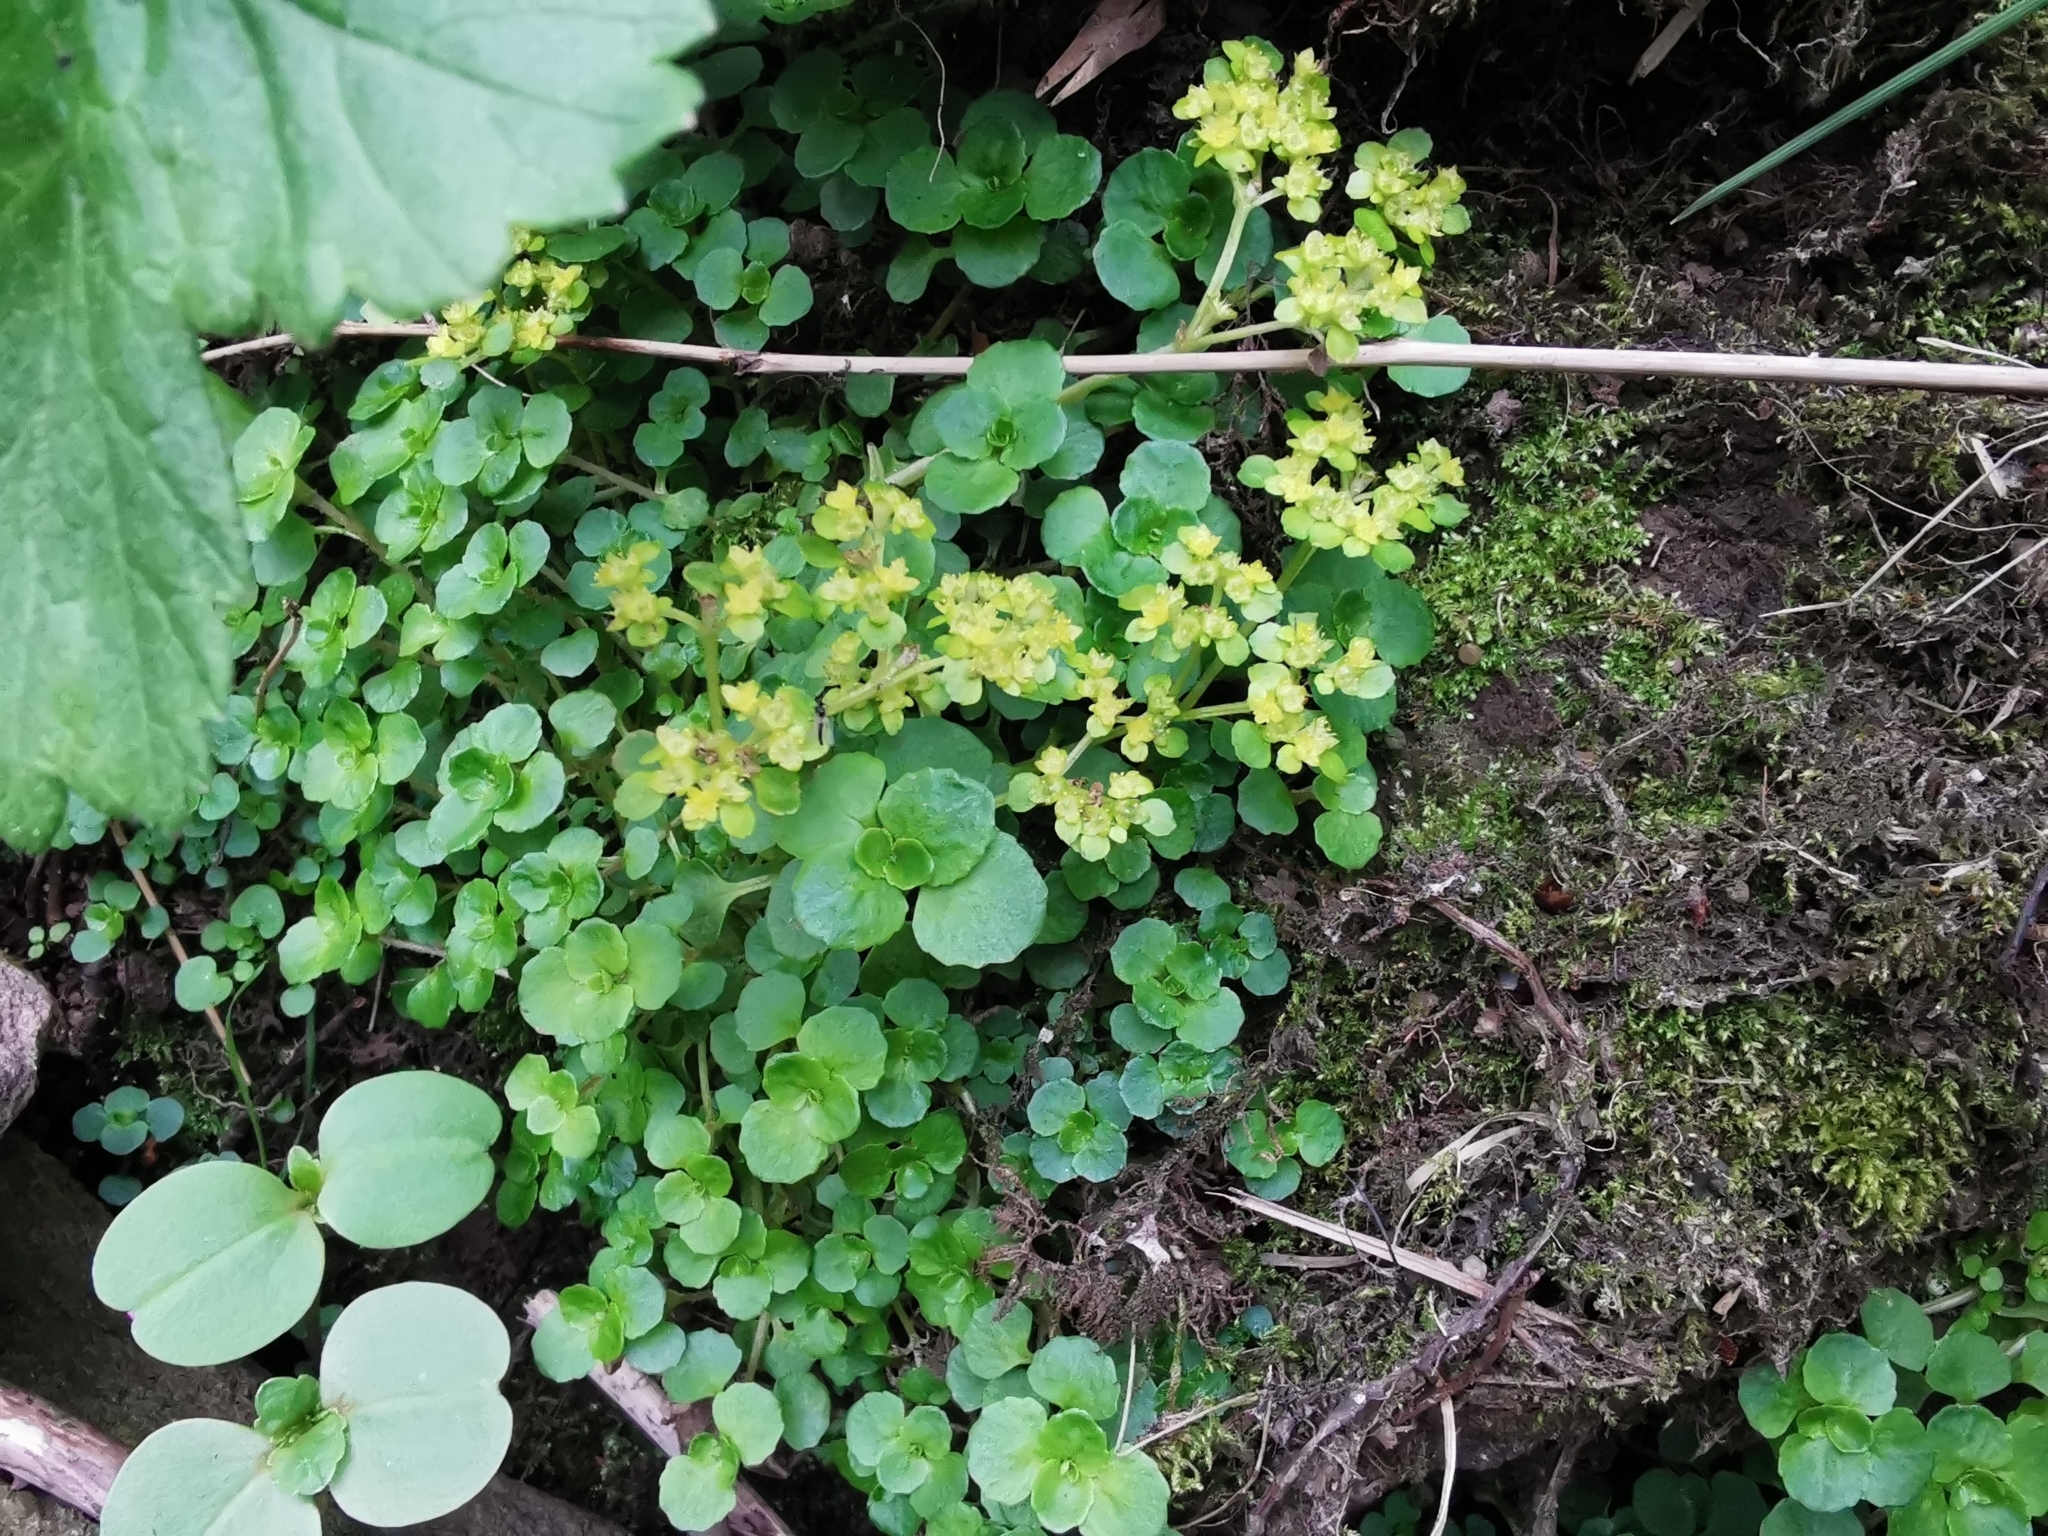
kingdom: Plantae
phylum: Tracheophyta
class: Magnoliopsida
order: Saxifragales
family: Saxifragaceae
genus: Chrysosplenium
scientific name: Chrysosplenium oppositifolium
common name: Opposite-leaved golden-saxifrage
